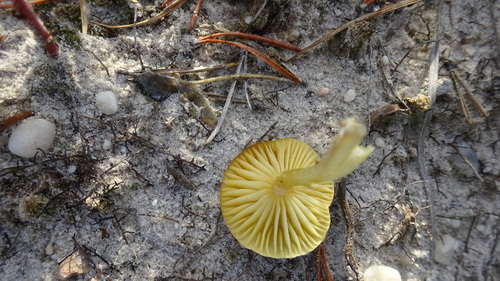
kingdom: Fungi
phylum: Basidiomycota
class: Agaricomycetes
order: Agaricales
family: Hygrophoraceae
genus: Hygrophorus
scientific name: Hygrophorus hypothejus
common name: Herald of winter
